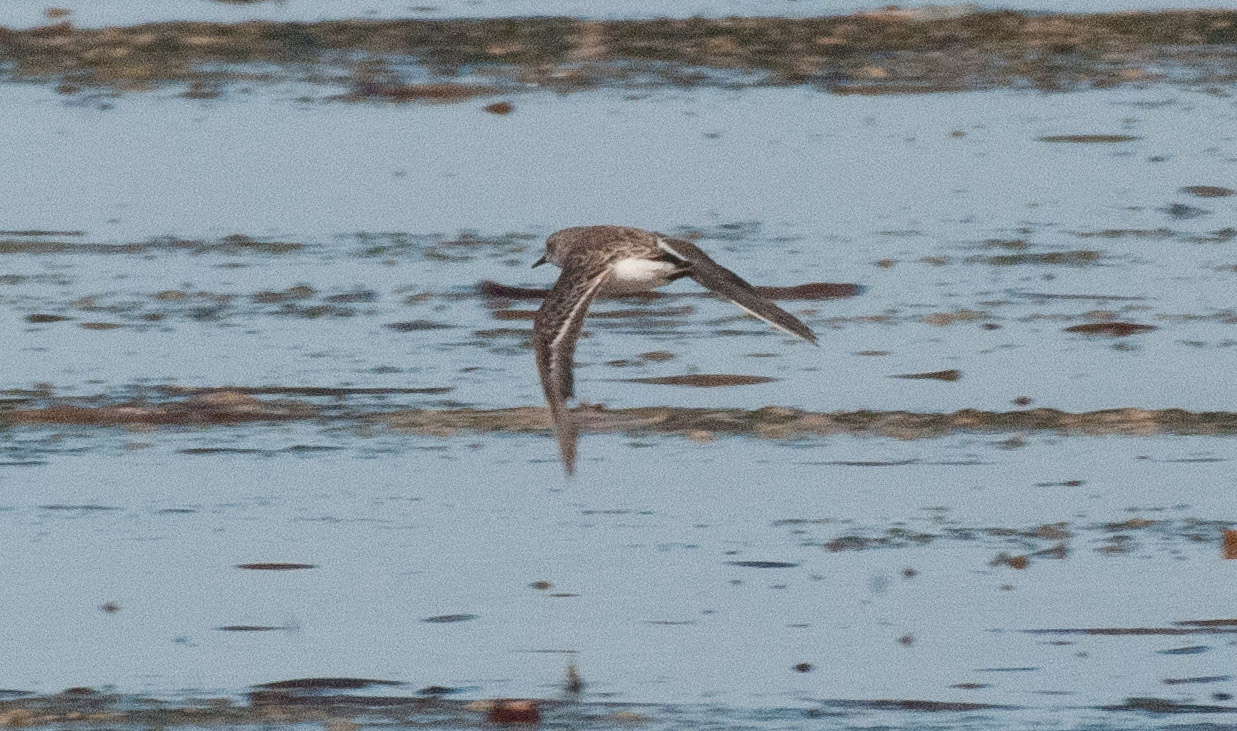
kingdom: Animalia
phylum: Chordata
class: Aves
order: Charadriiformes
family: Scolopacidae
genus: Calidris
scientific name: Calidris ruficollis
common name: Red-necked stint
